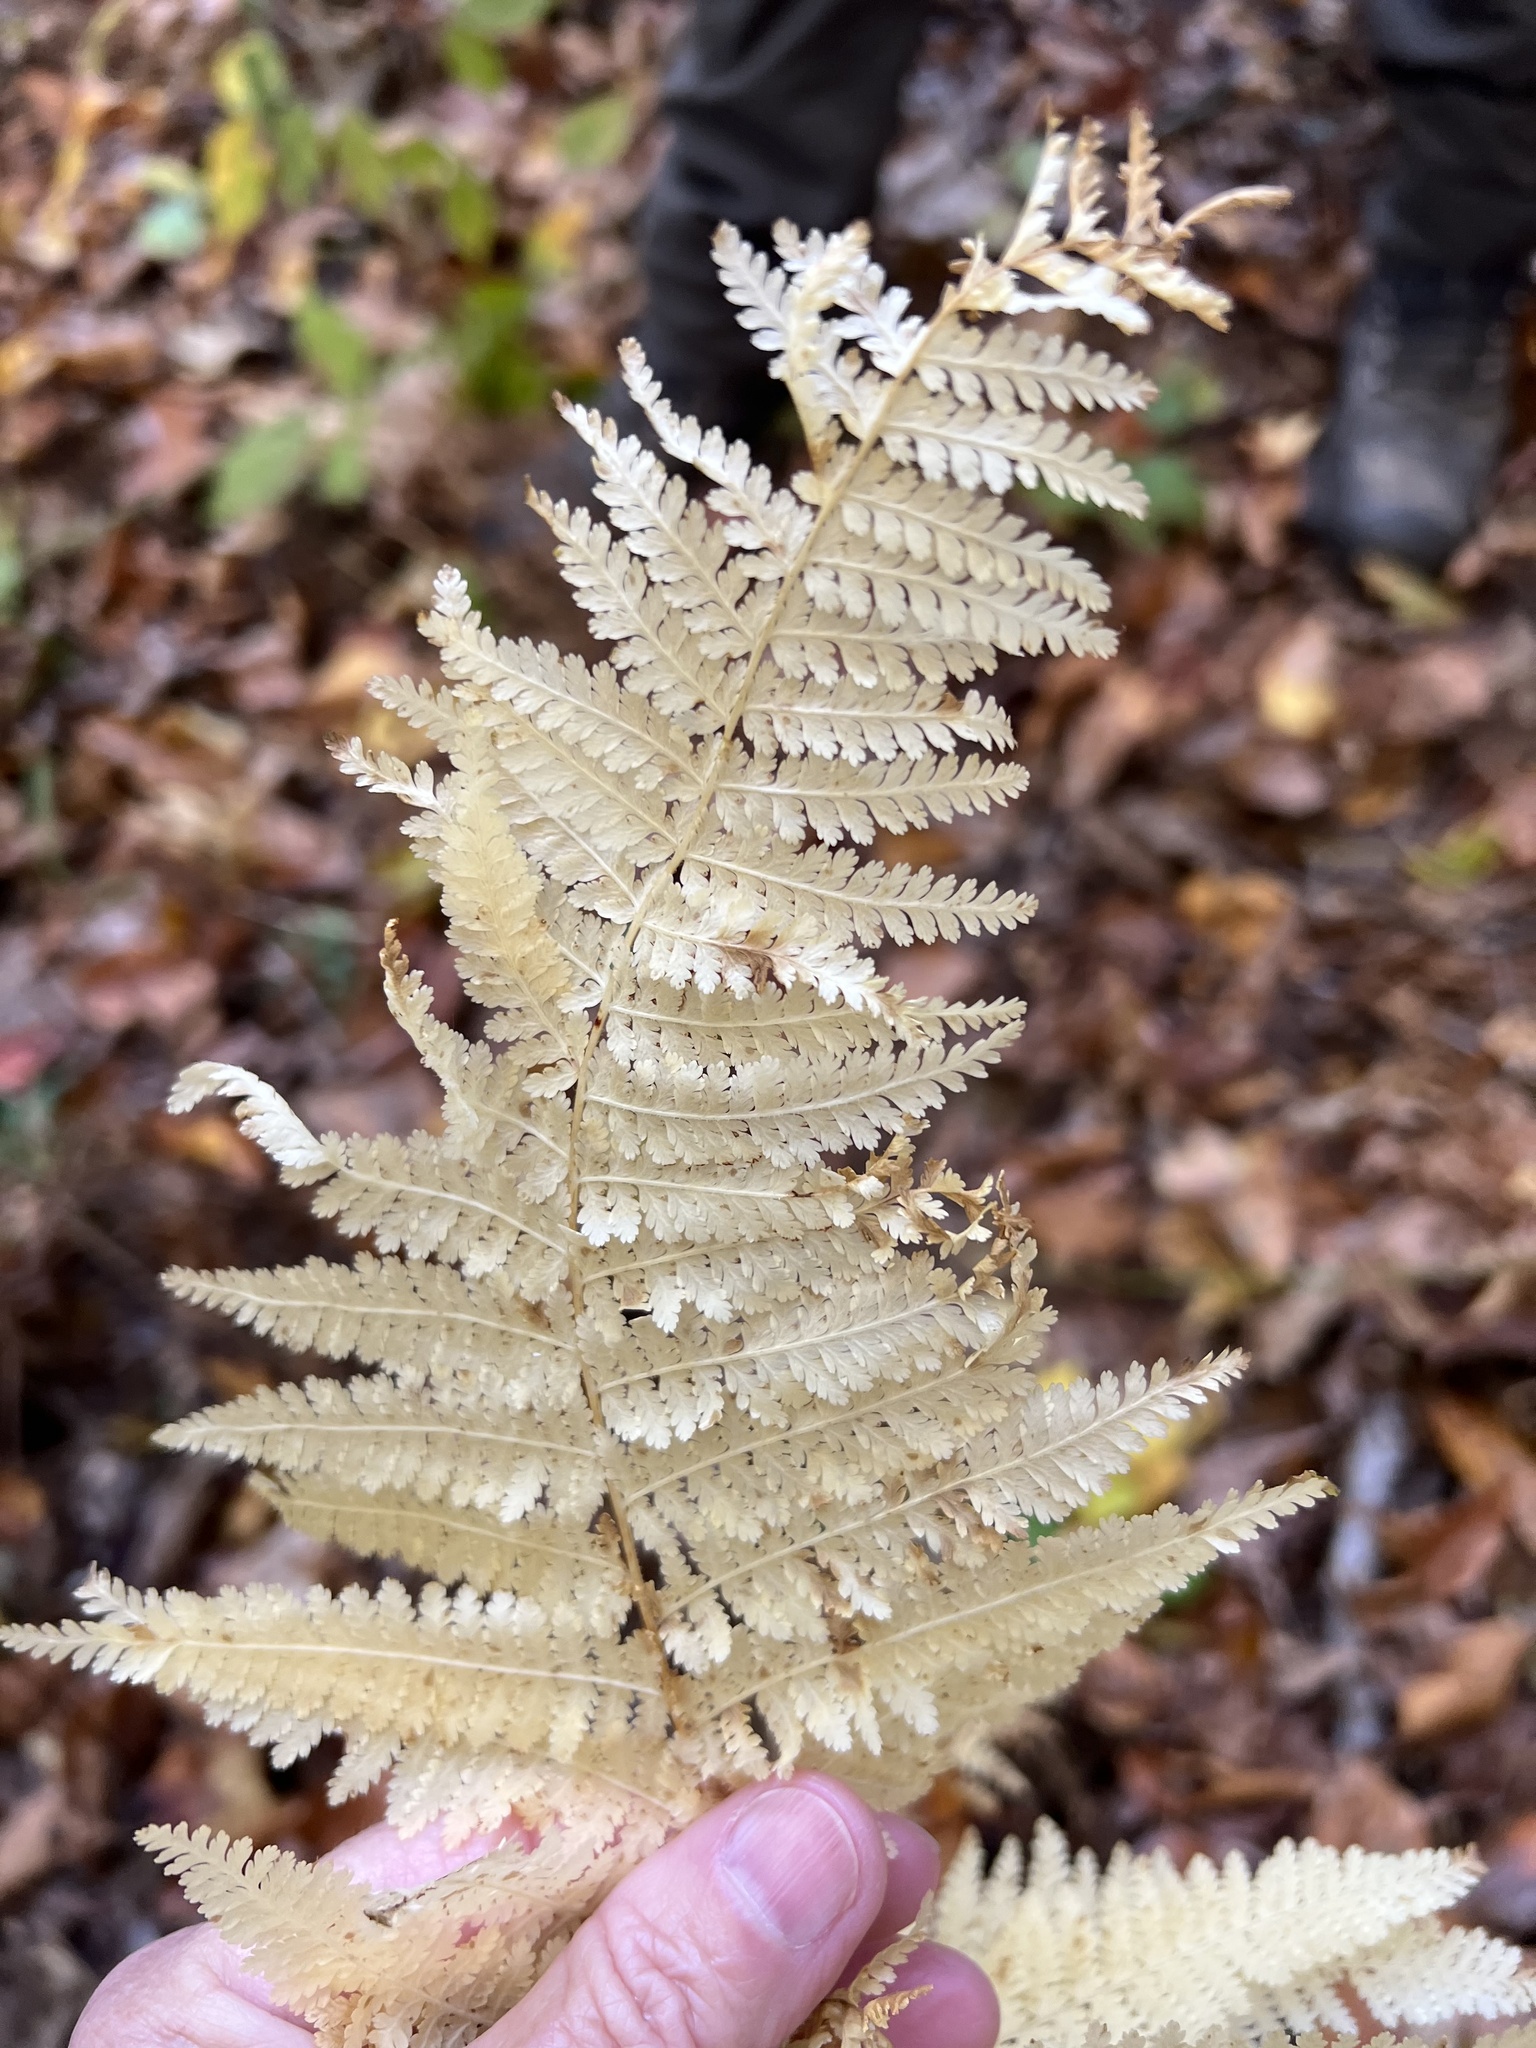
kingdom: Plantae
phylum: Tracheophyta
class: Polypodiopsida
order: Polypodiales
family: Dennstaedtiaceae
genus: Sitobolium
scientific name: Sitobolium punctilobum
